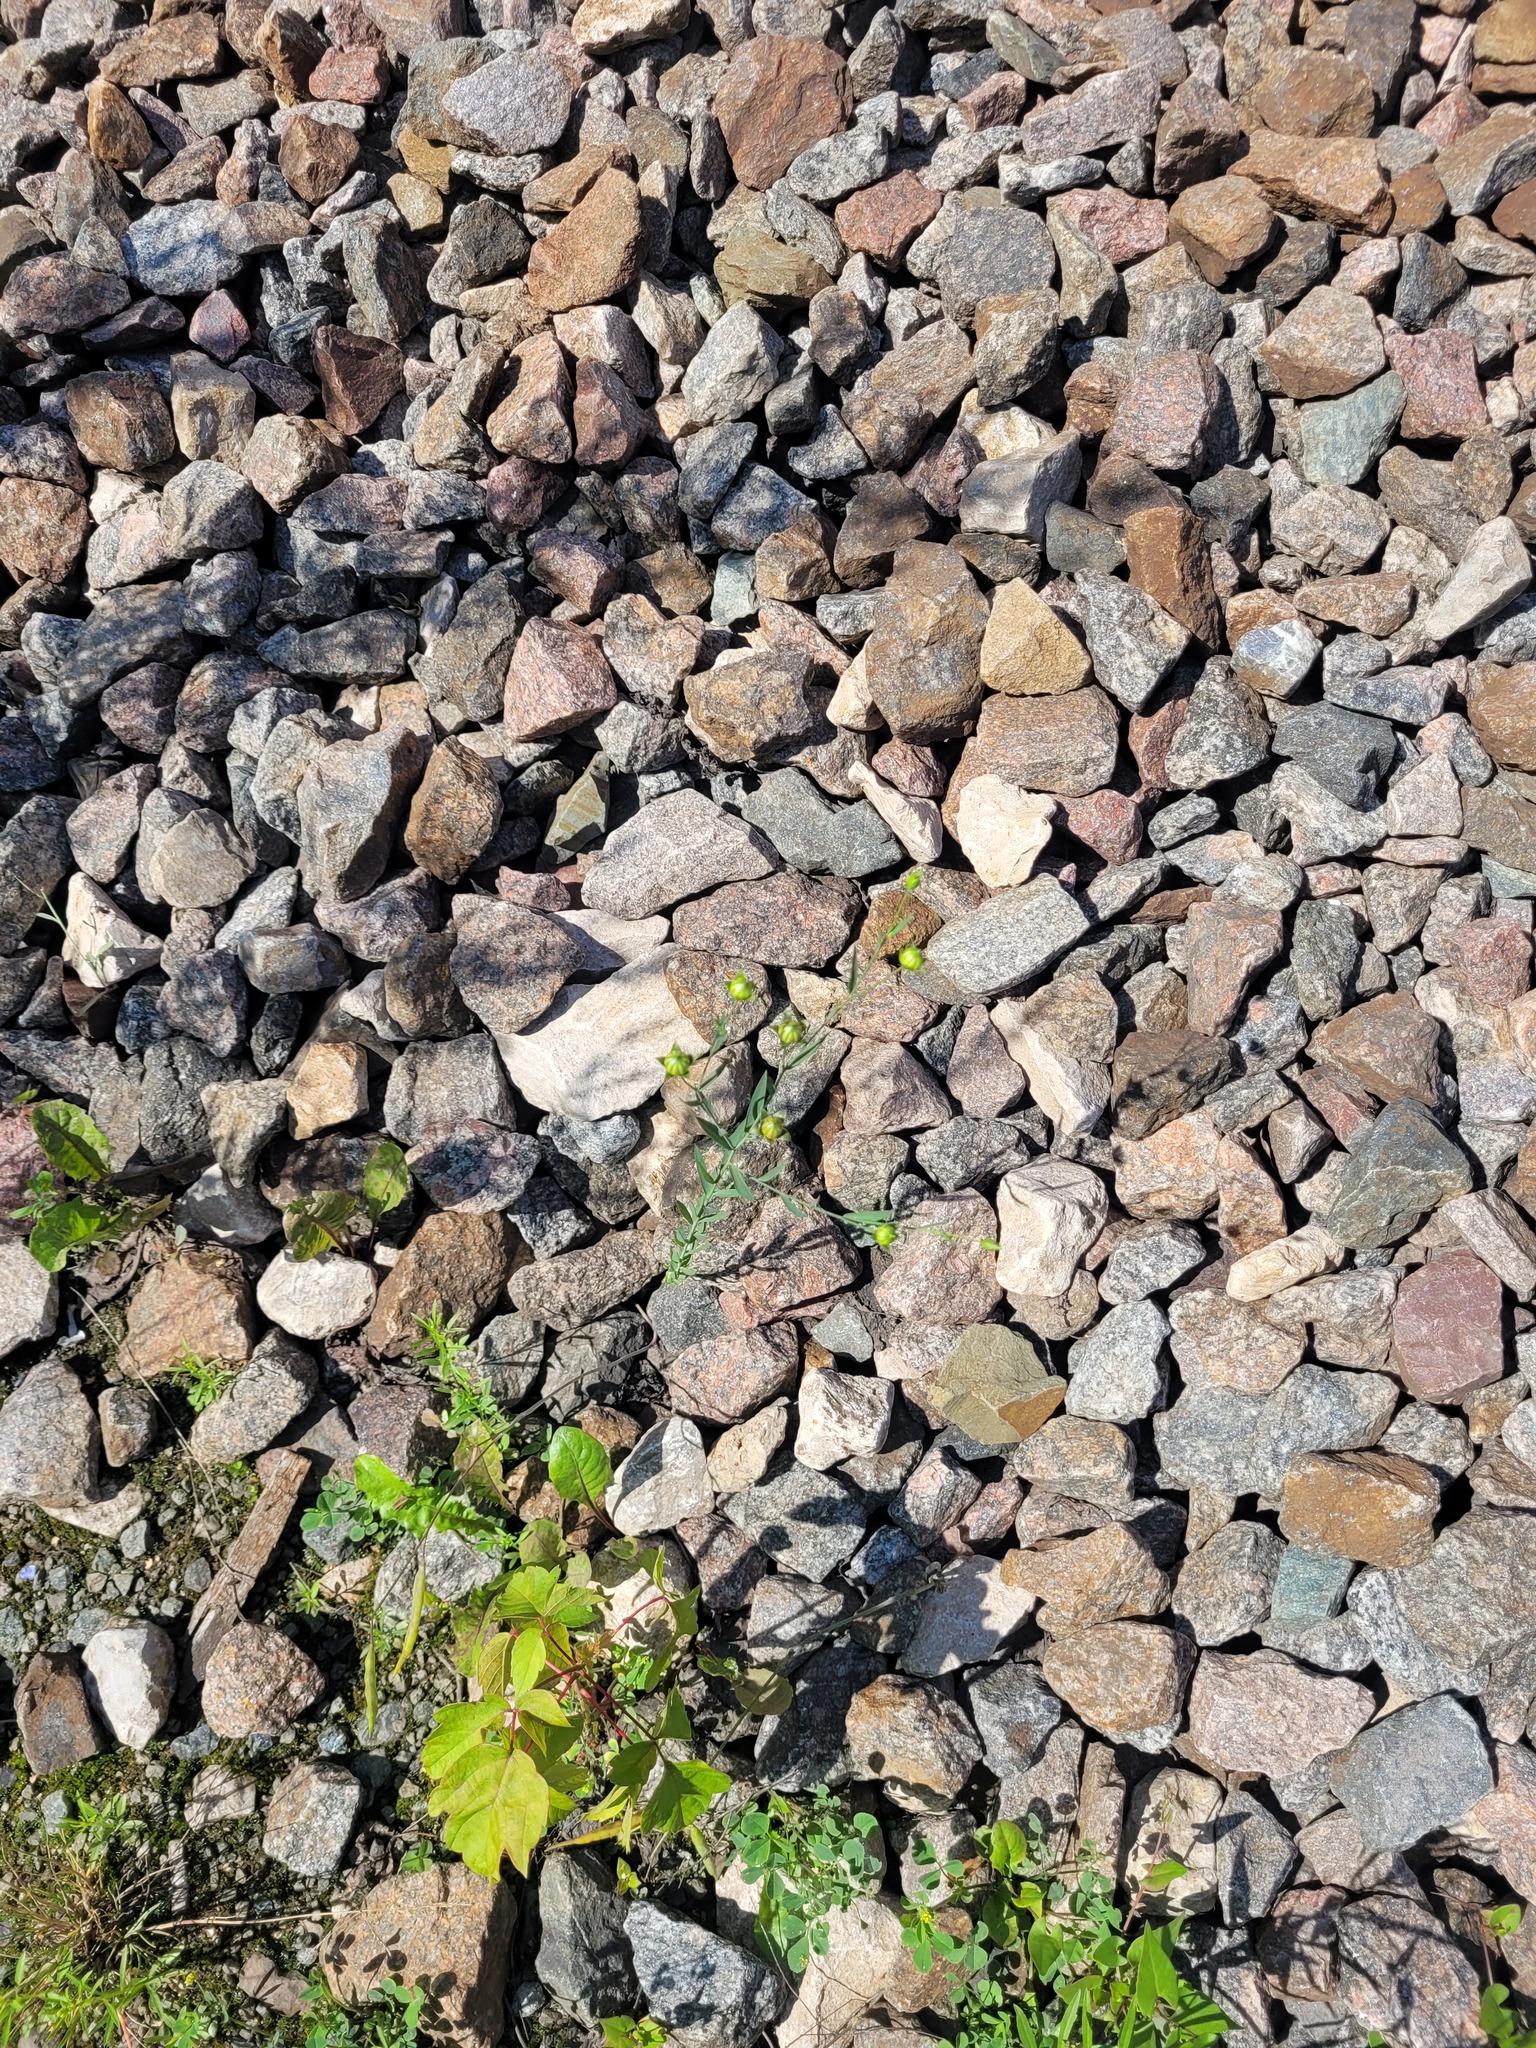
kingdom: Plantae
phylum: Tracheophyta
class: Magnoliopsida
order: Malpighiales
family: Linaceae
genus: Linum
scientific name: Linum usitatissimum
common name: Flax
